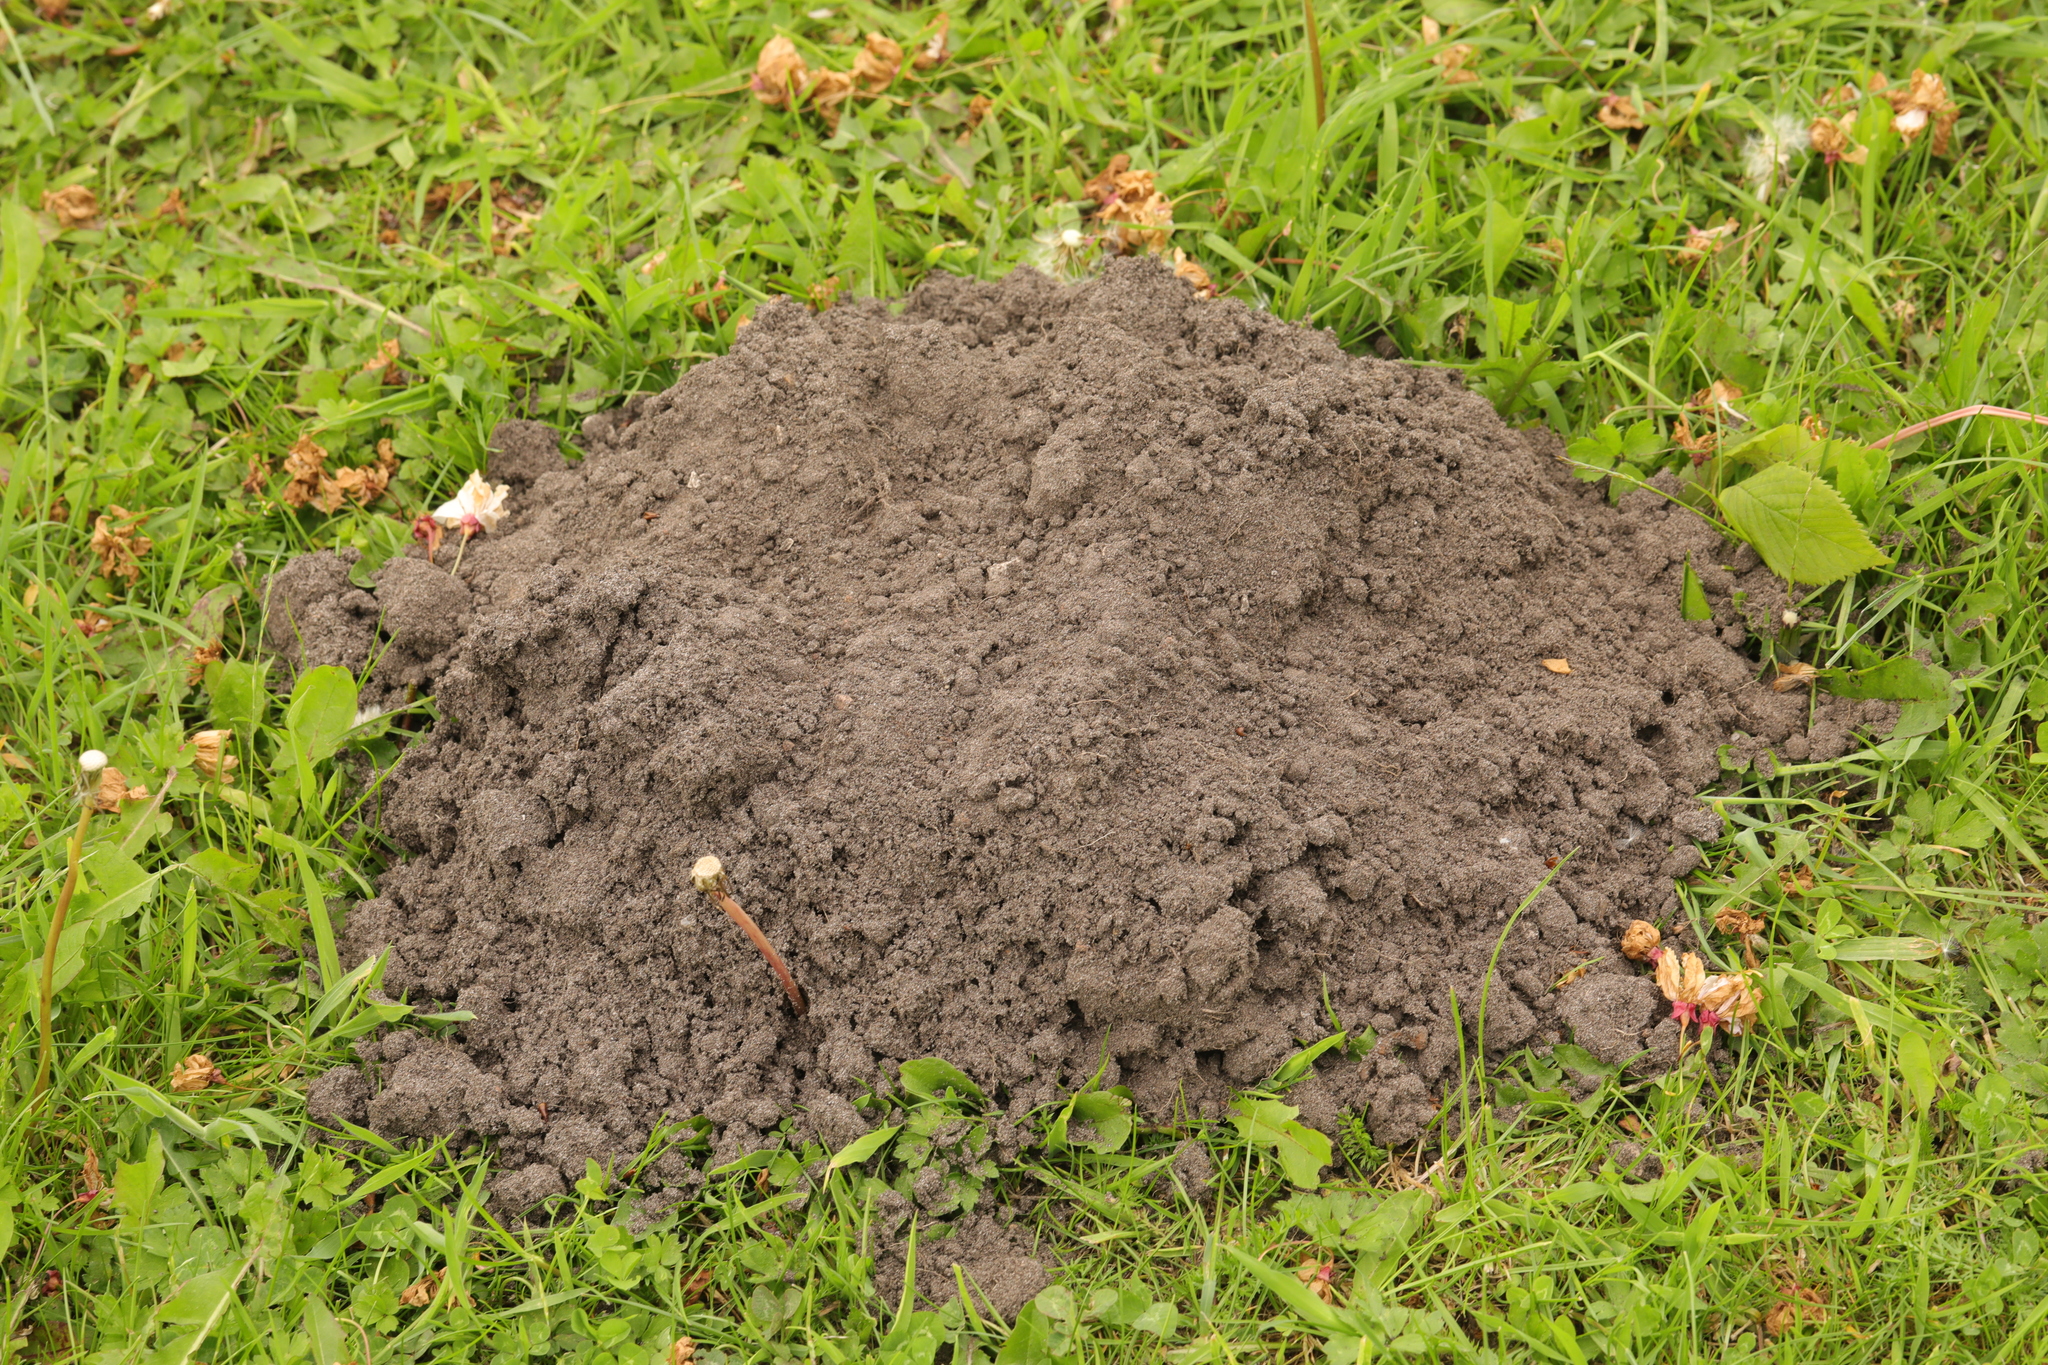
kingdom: Animalia
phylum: Chordata
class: Mammalia
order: Soricomorpha
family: Talpidae
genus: Talpa
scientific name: Talpa europaea
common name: European mole
